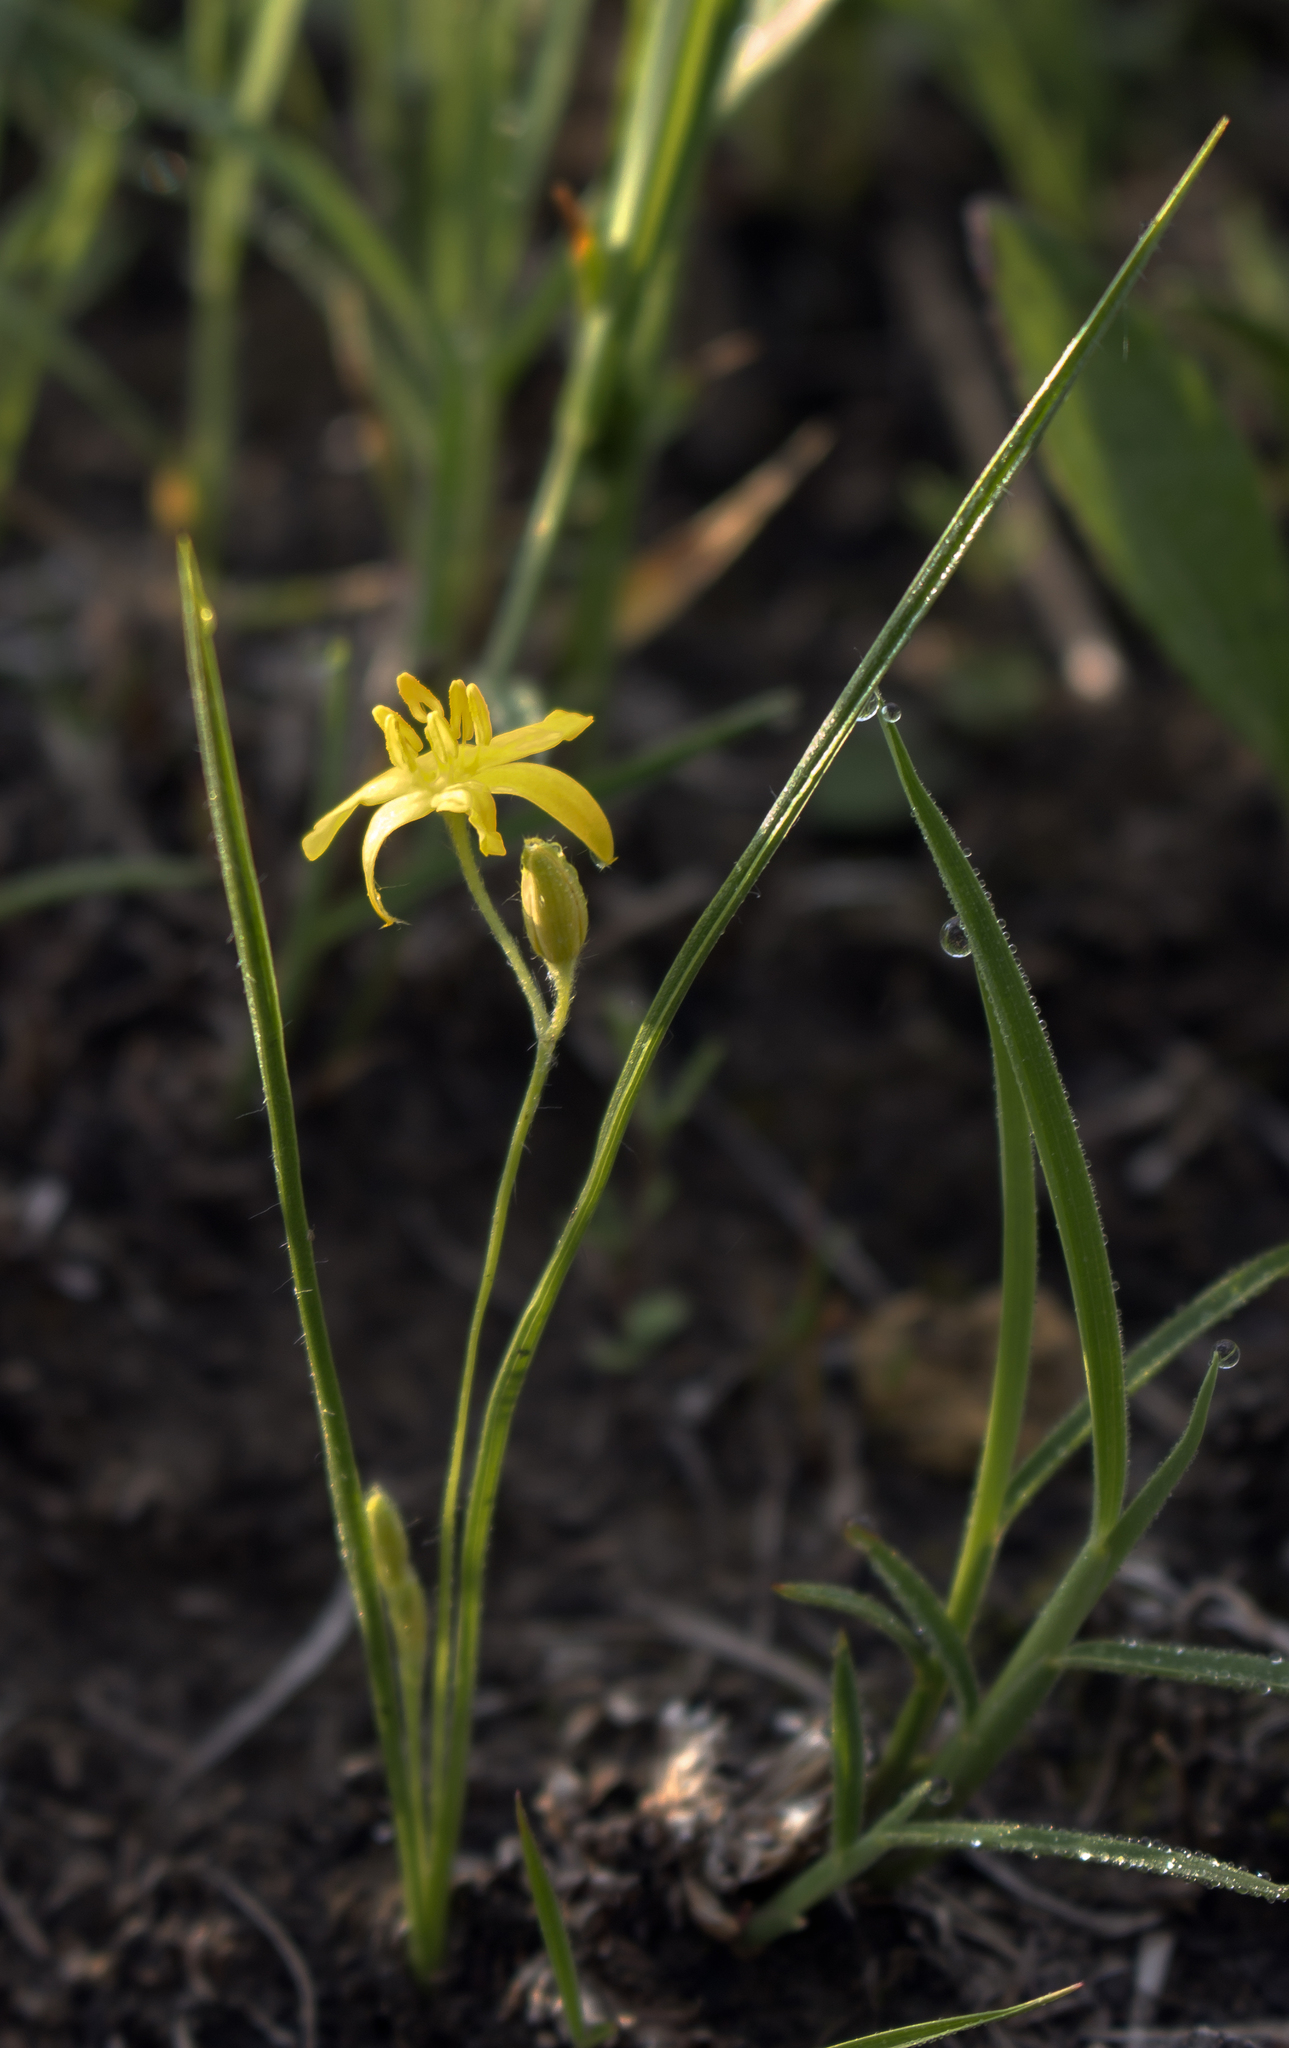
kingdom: Plantae
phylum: Tracheophyta
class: Liliopsida
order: Asparagales
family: Hypoxidaceae
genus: Hypoxis
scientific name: Hypoxis hirsuta
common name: Common goldstar
